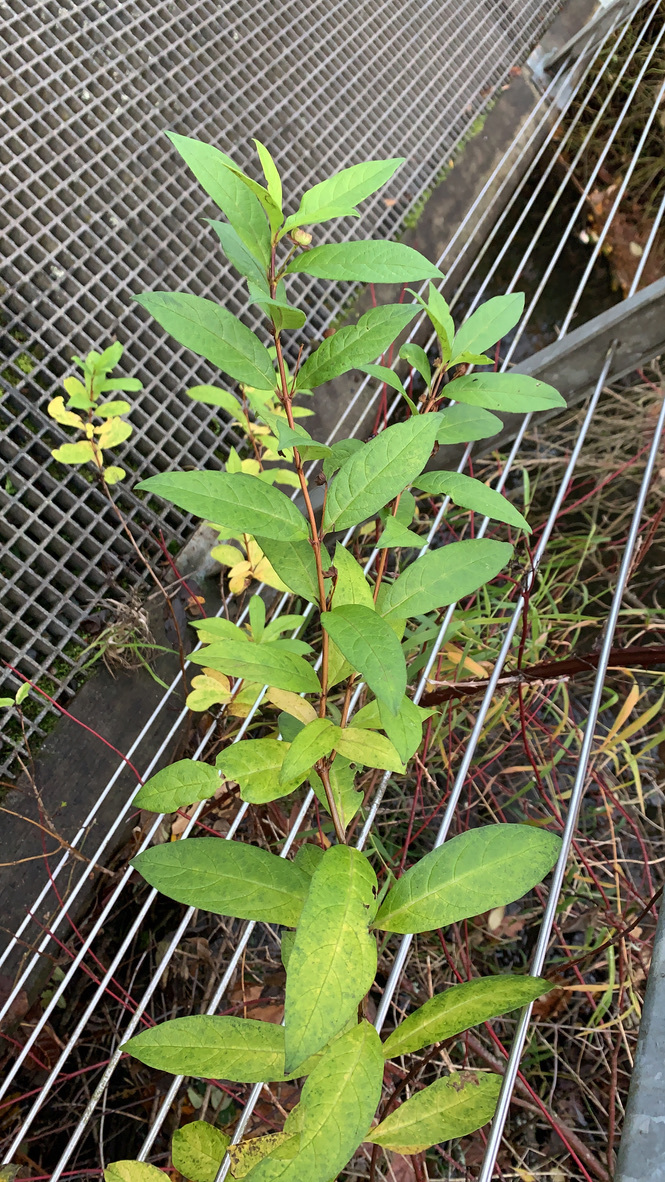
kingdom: Plantae
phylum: Tracheophyta
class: Magnoliopsida
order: Dipsacales
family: Caprifoliaceae
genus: Lonicera
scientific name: Lonicera involucrata
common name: Californian honeysuckle
